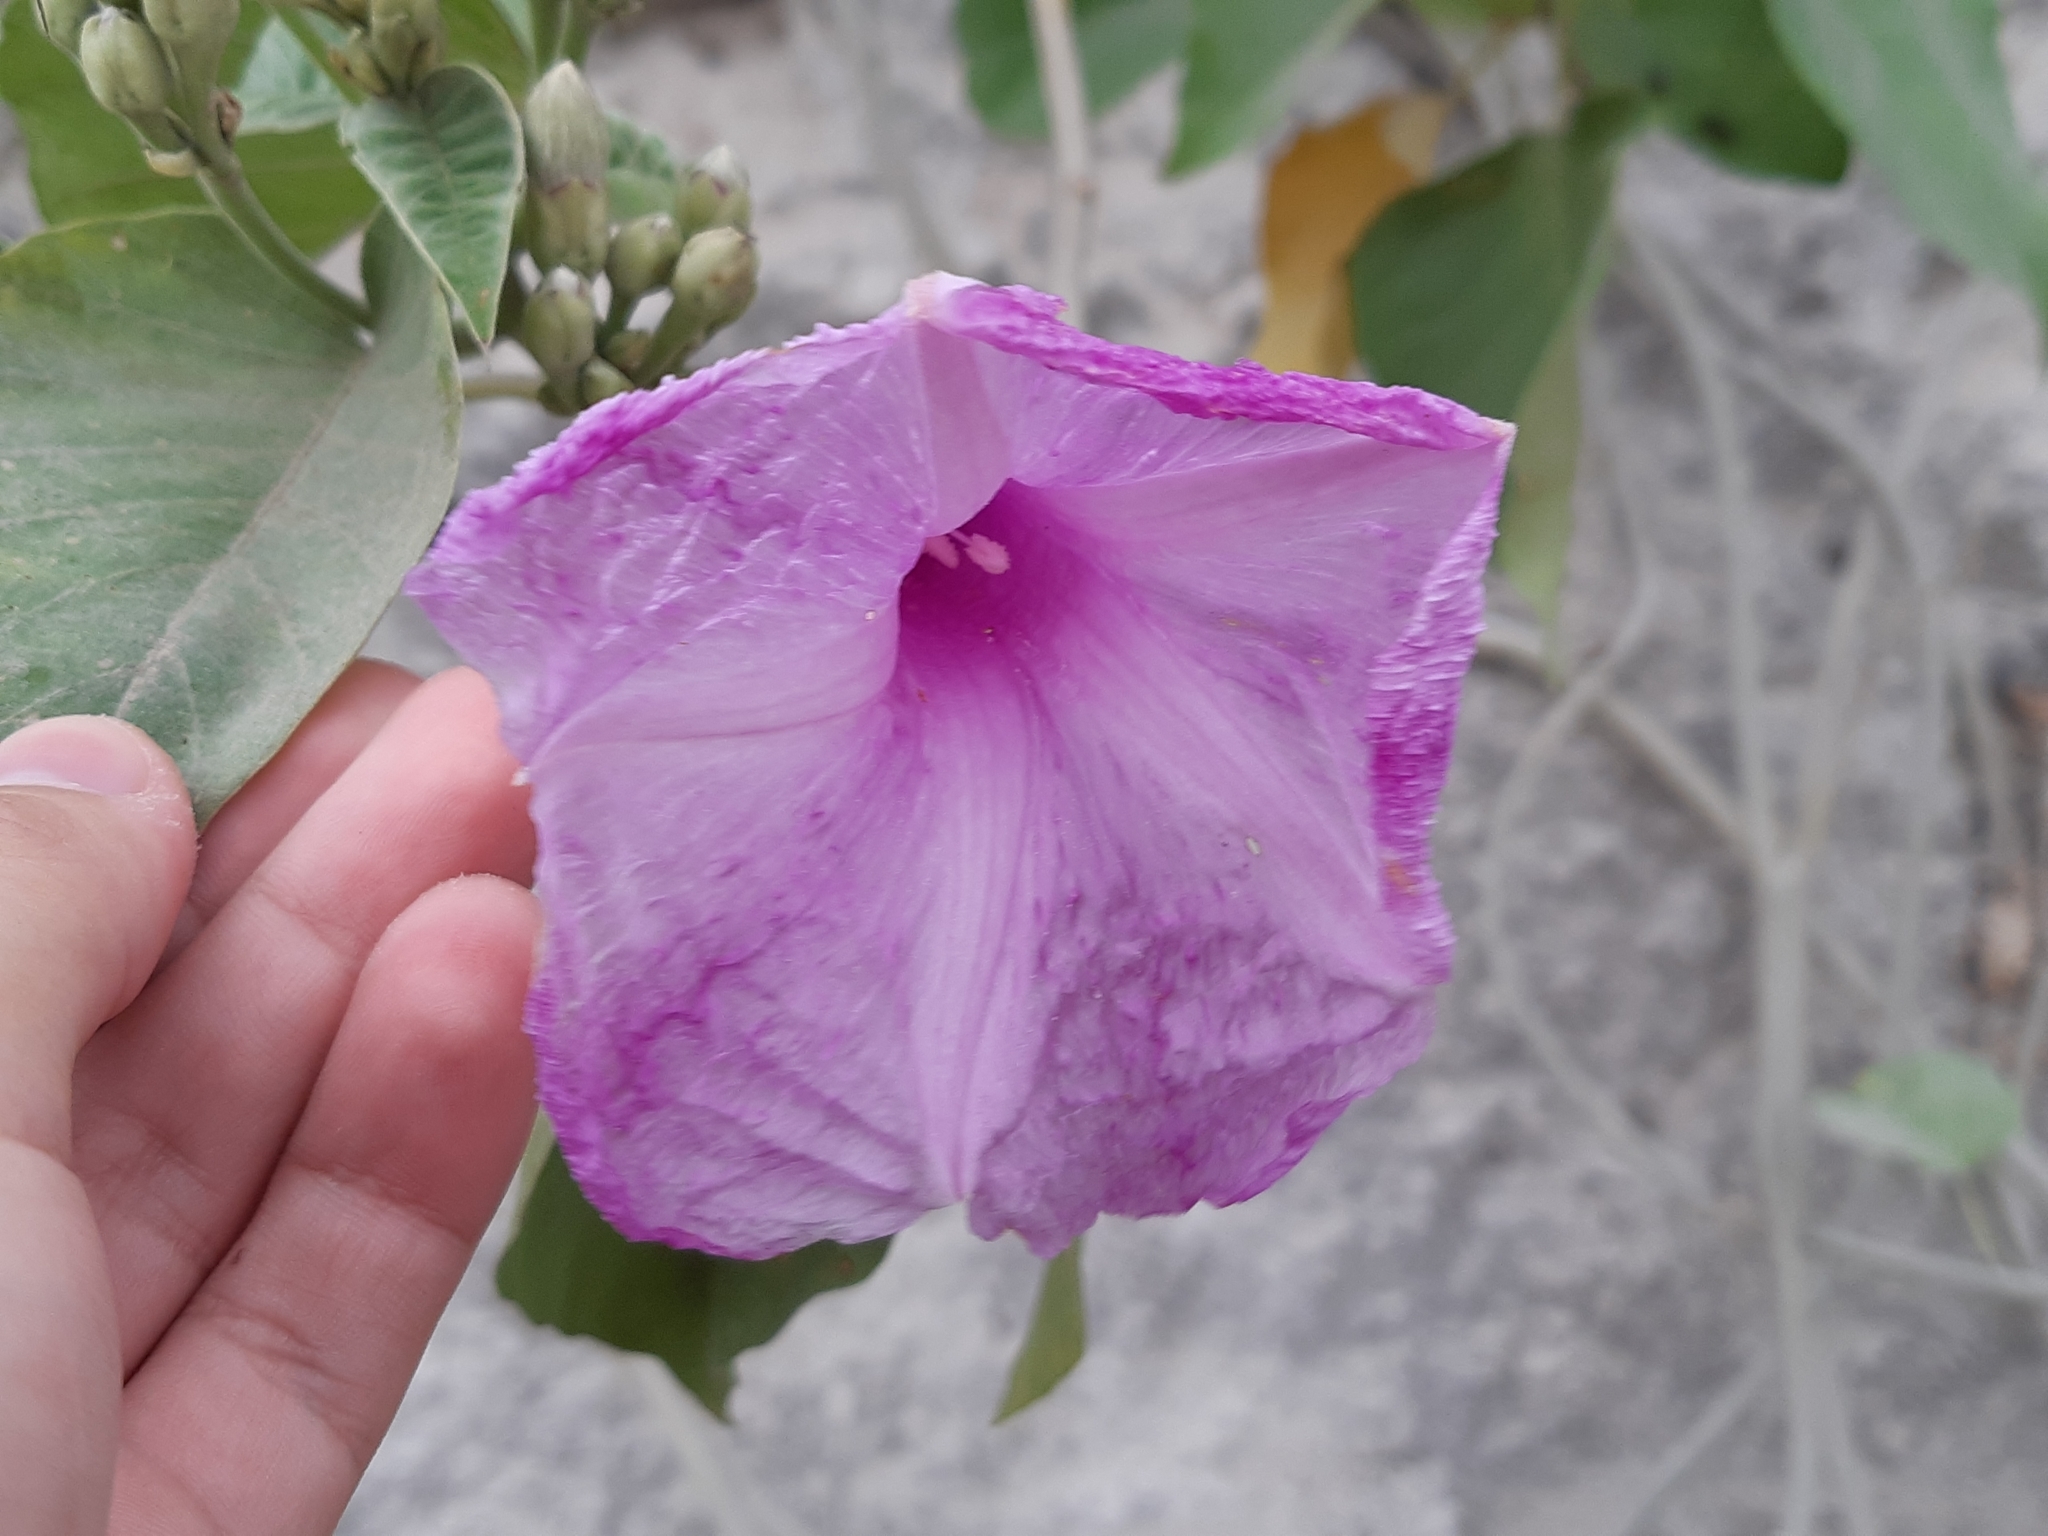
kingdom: Plantae
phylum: Tracheophyta
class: Magnoliopsida
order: Solanales
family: Convolvulaceae
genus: Ipomoea
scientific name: Ipomoea carnea
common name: Morning-glory
